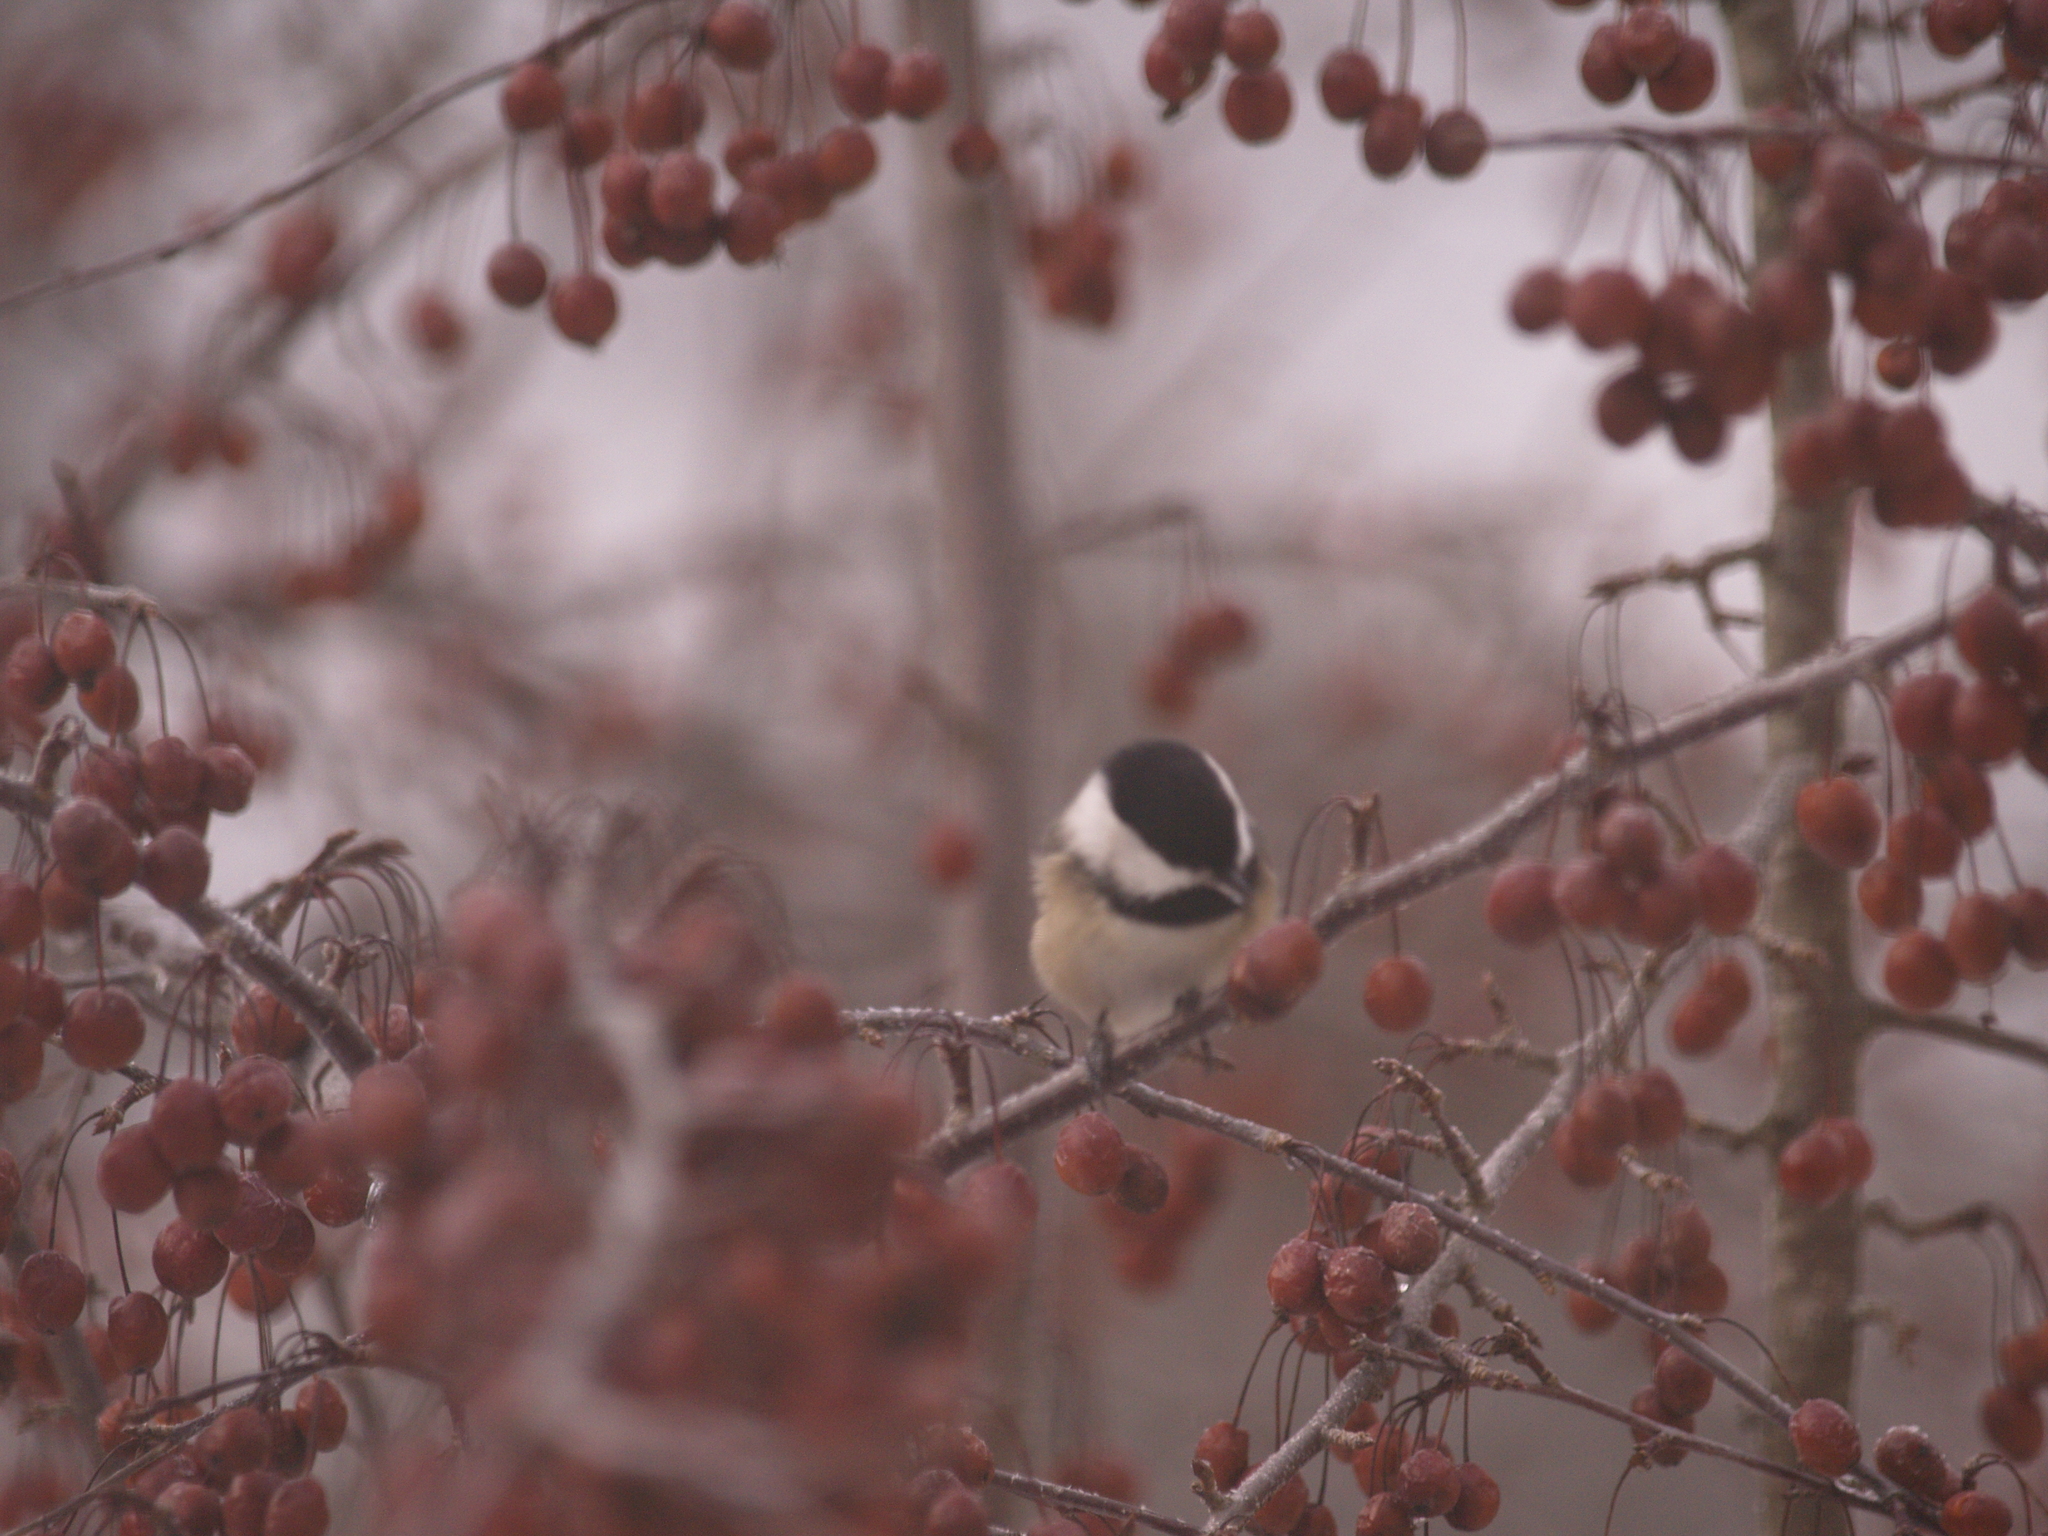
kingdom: Animalia
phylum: Chordata
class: Aves
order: Passeriformes
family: Paridae
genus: Poecile
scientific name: Poecile atricapillus
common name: Black-capped chickadee
